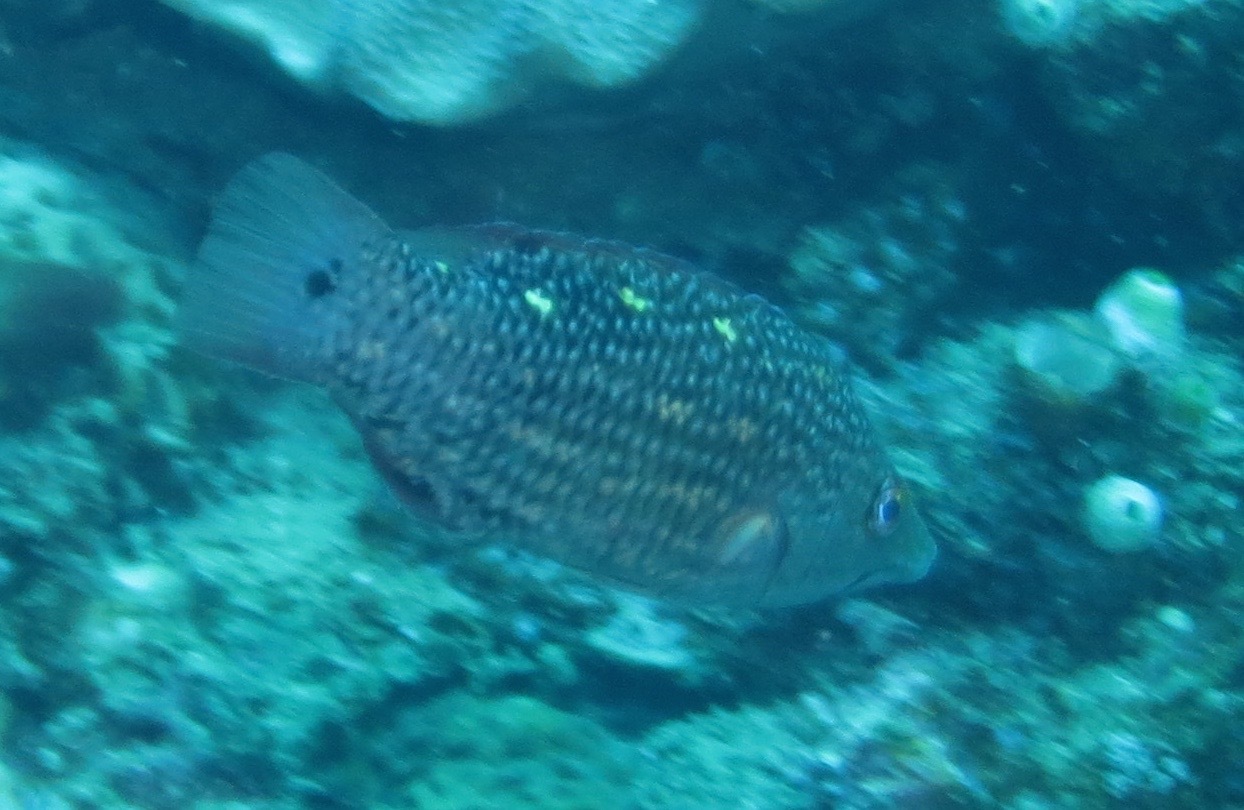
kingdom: Animalia
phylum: Chordata
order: Perciformes
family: Labridae
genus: Bodianus
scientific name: Bodianus diana
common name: Diana's hogfish
